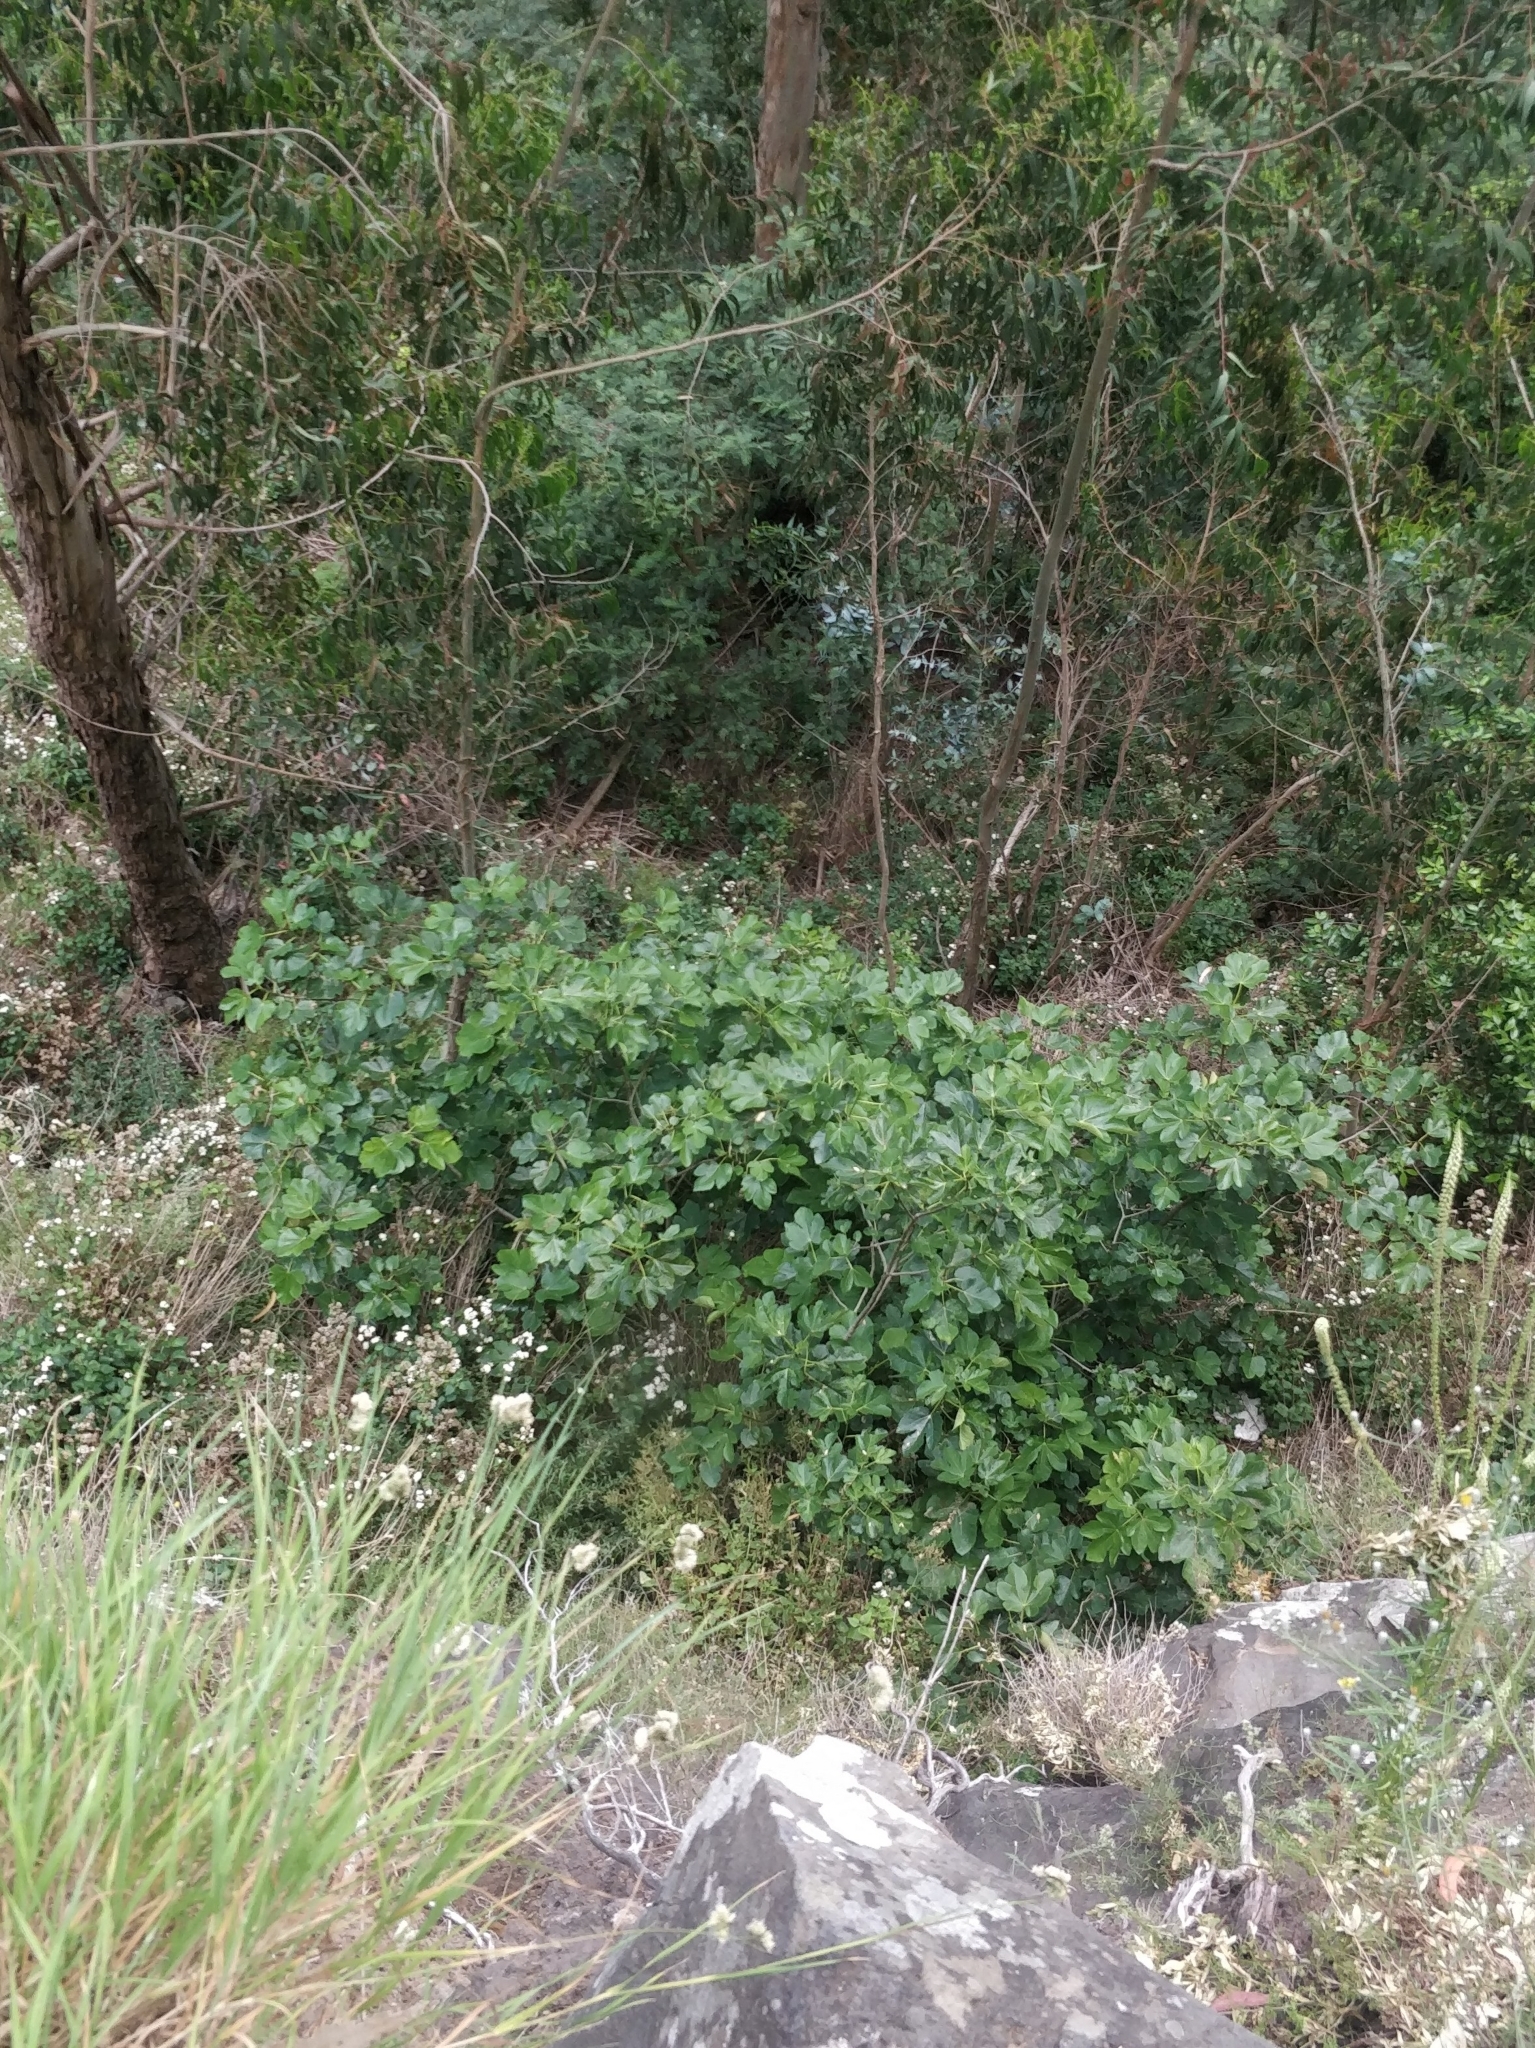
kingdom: Plantae
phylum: Tracheophyta
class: Magnoliopsida
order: Rosales
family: Moraceae
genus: Ficus
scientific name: Ficus carica
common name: Fig
